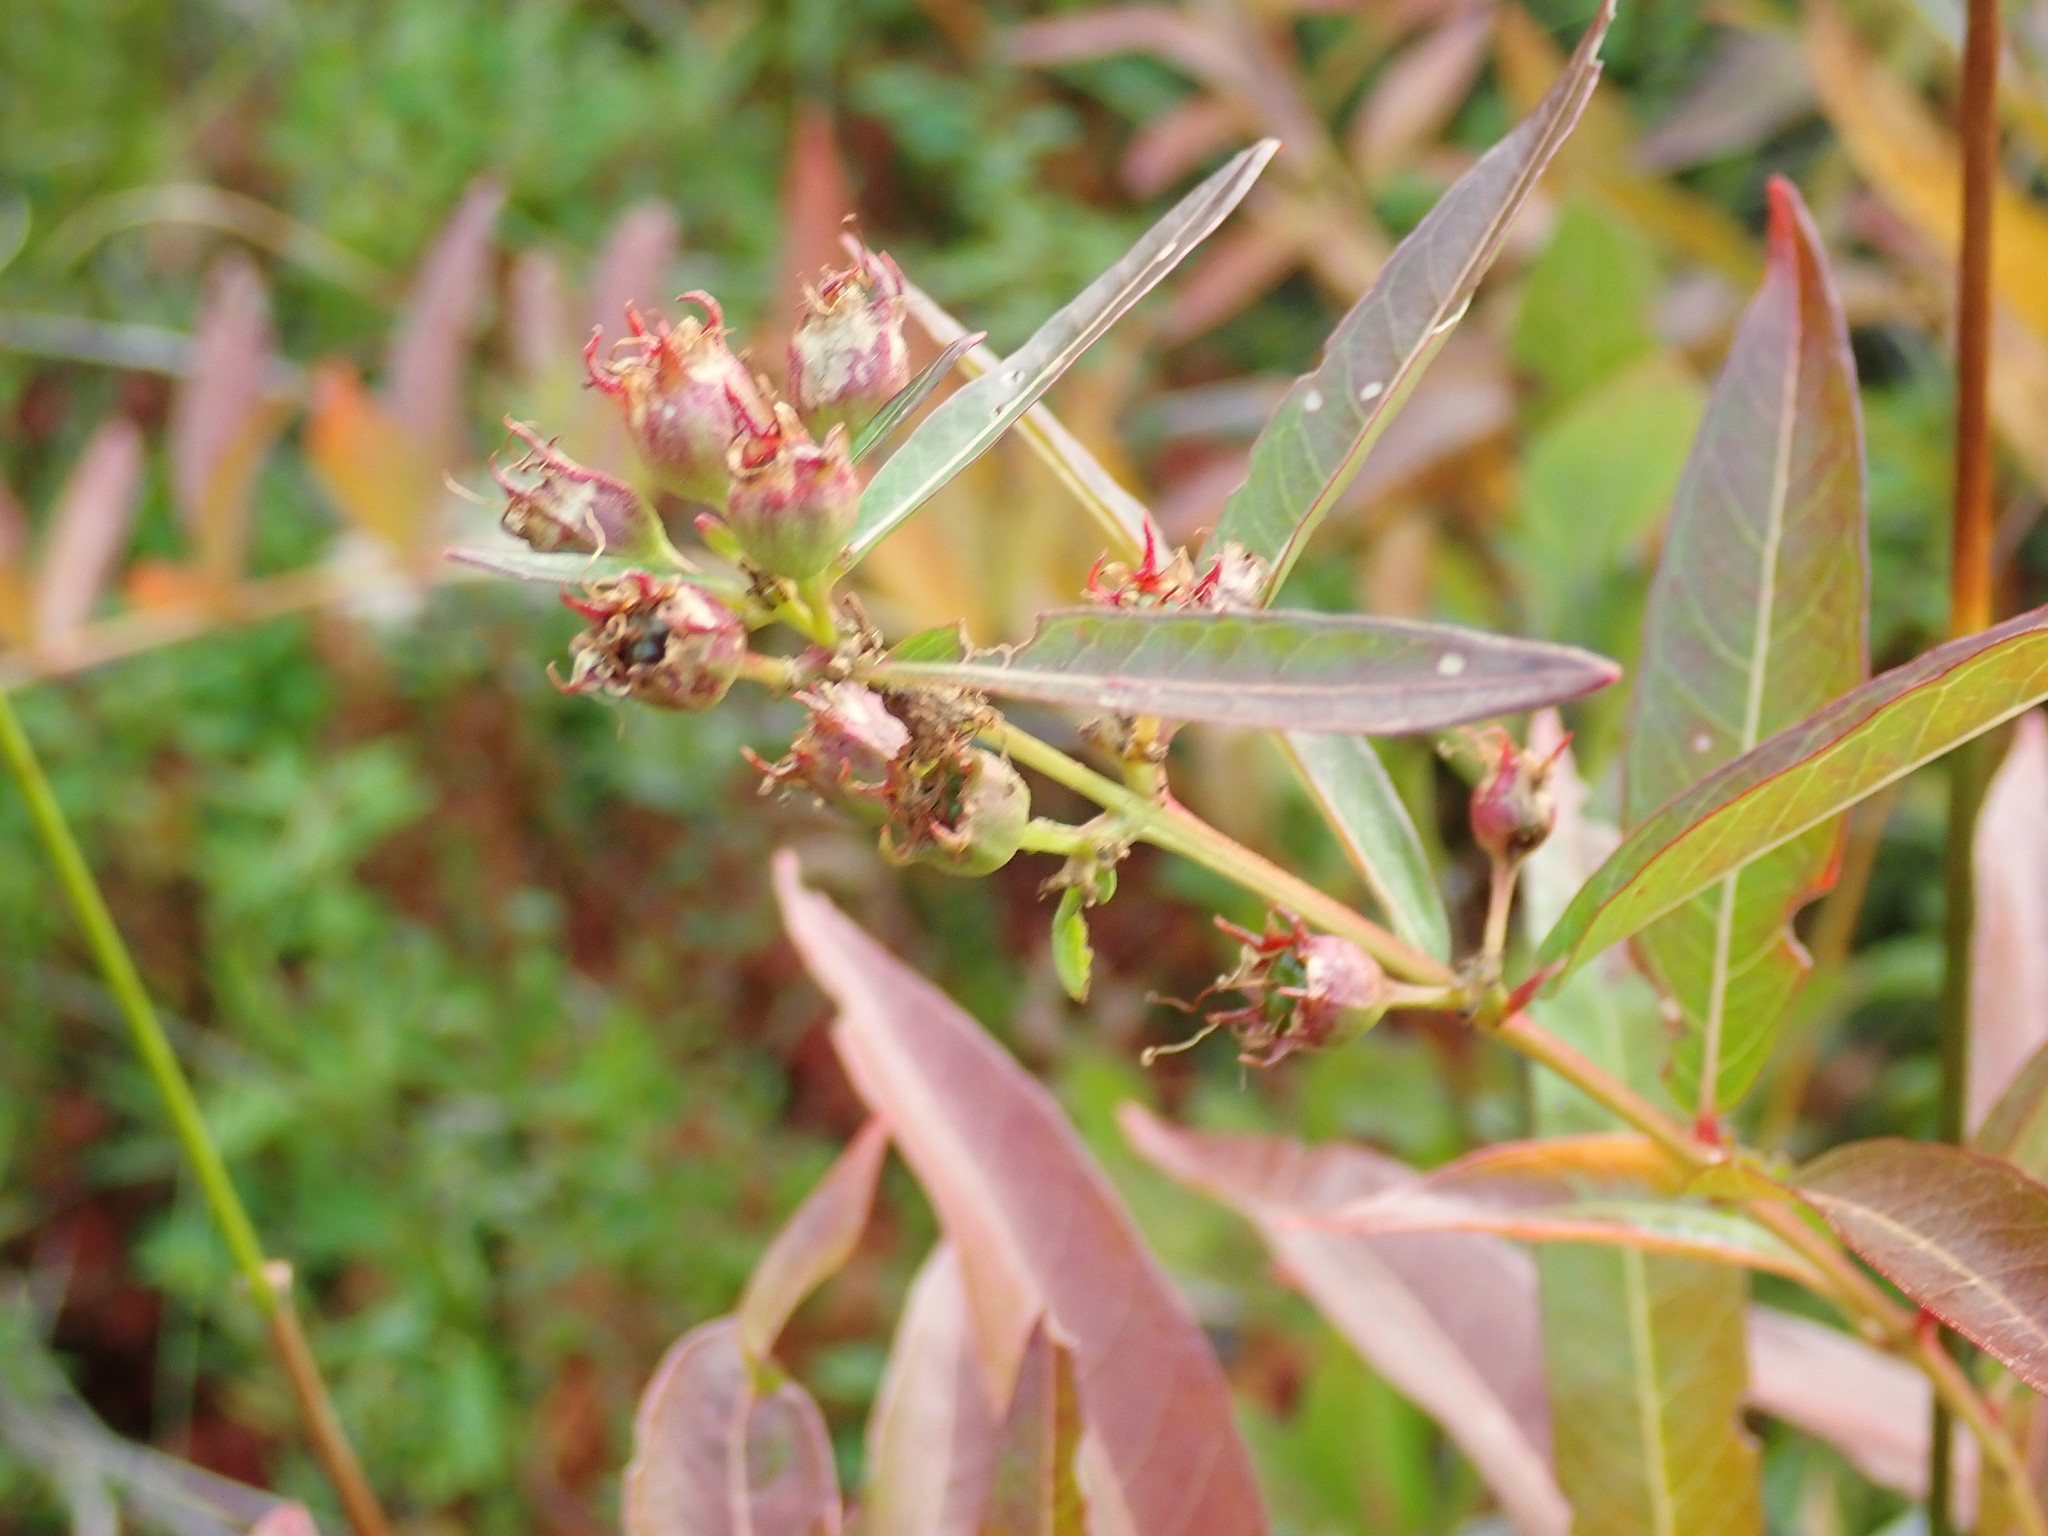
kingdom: Plantae
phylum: Tracheophyta
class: Magnoliopsida
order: Myrtales
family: Lythraceae
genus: Decodon
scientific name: Decodon verticillatus
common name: Hairy swamp loosestrife
